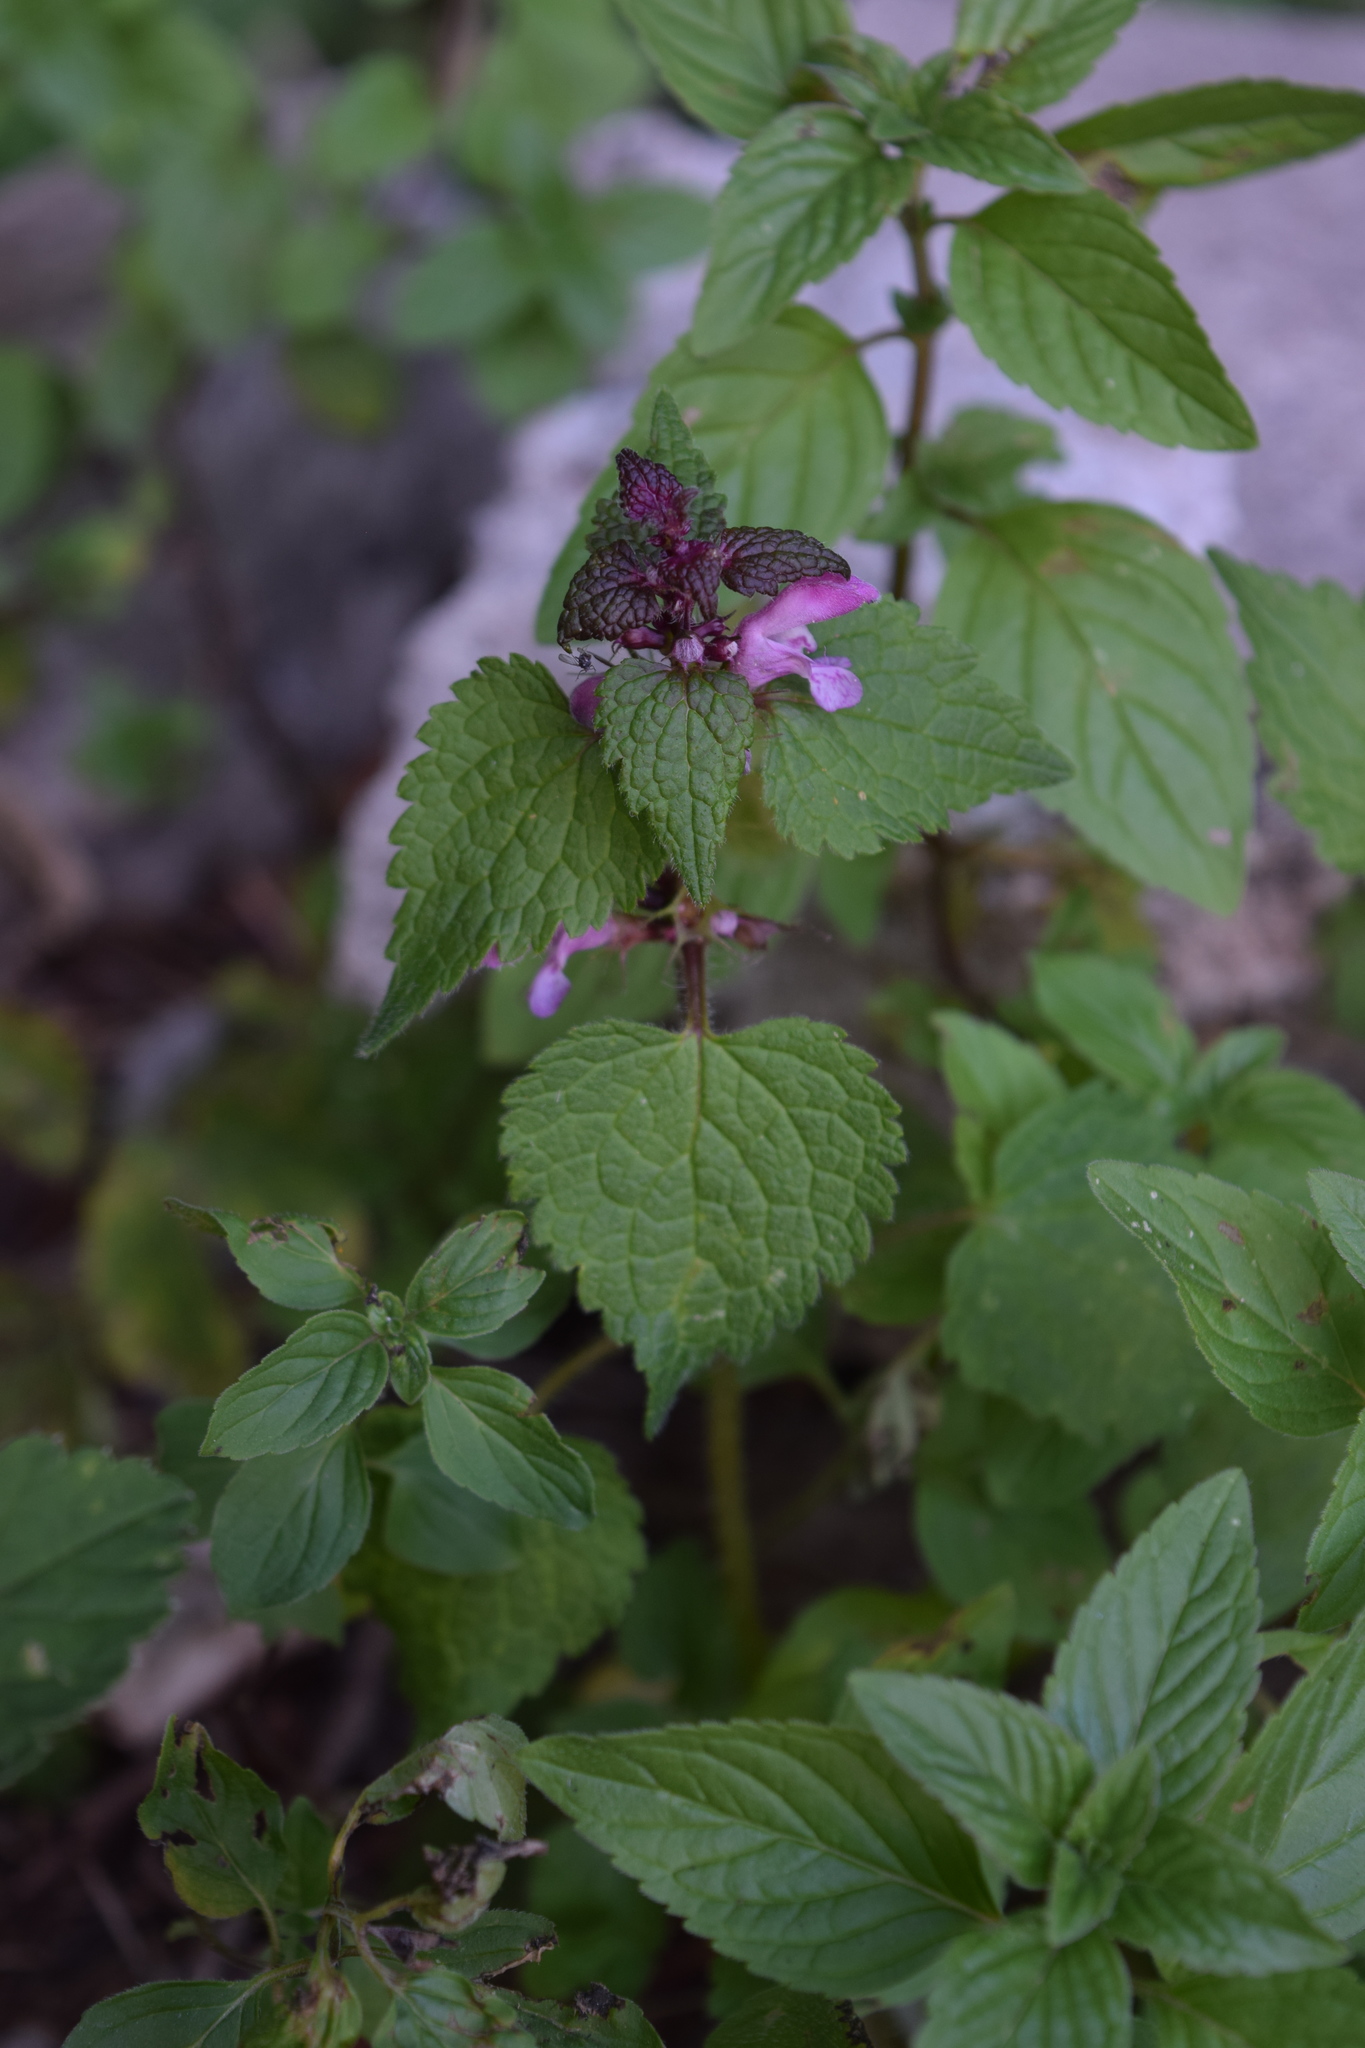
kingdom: Plantae
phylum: Tracheophyta
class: Magnoliopsida
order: Lamiales
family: Lamiaceae
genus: Lamium
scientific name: Lamium maculatum
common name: Spotted dead-nettle
